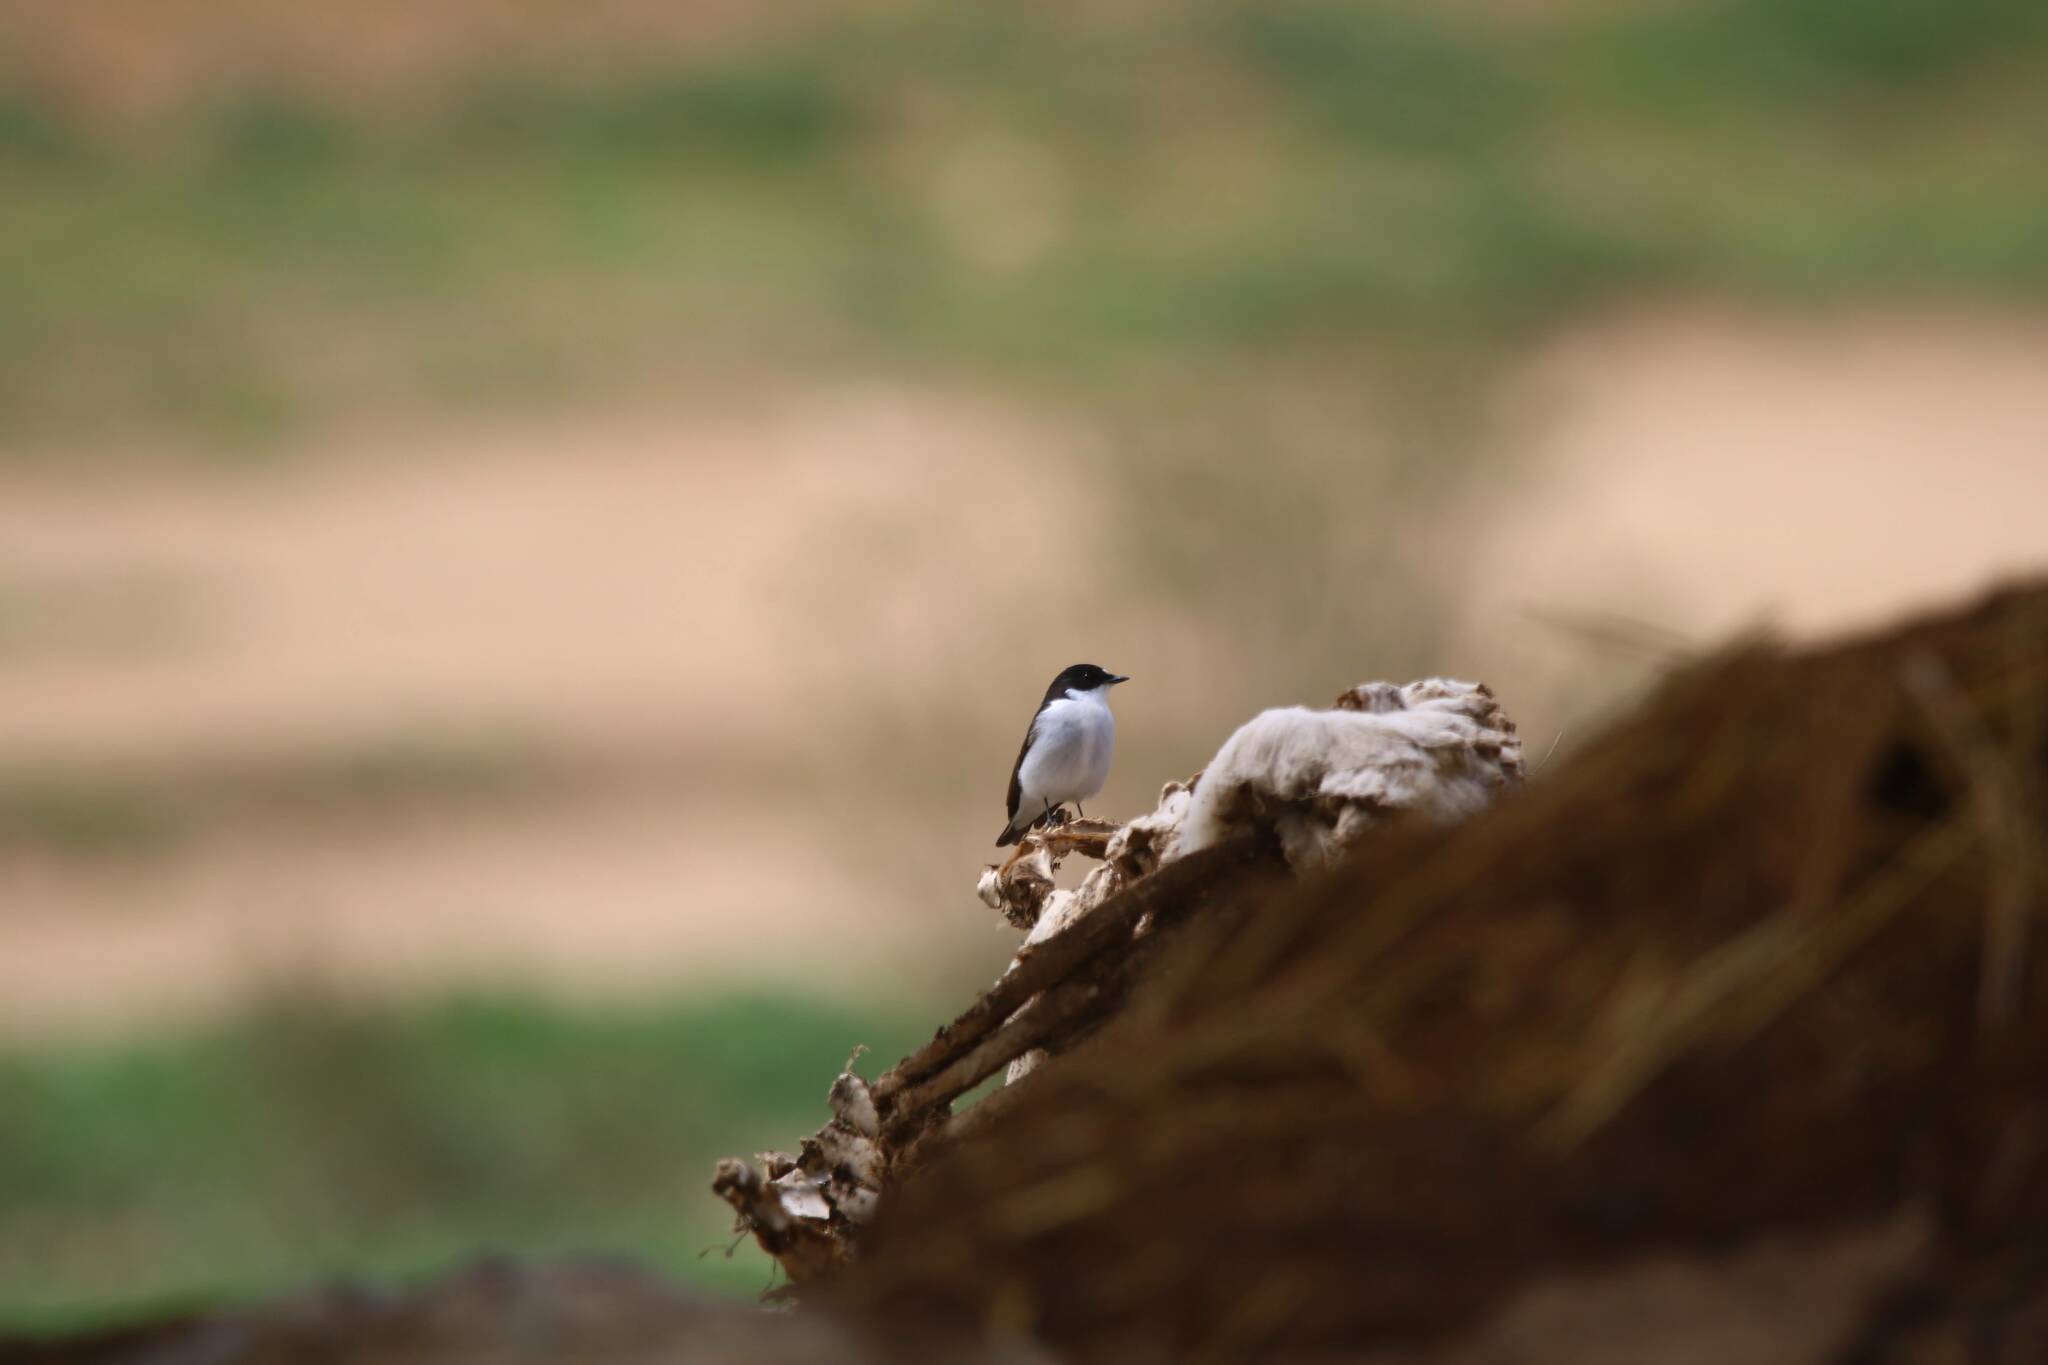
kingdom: Animalia
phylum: Chordata
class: Aves
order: Passeriformes
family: Muscicapidae
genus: Ficedula
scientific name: Ficedula hypoleuca
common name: European pied flycatcher
